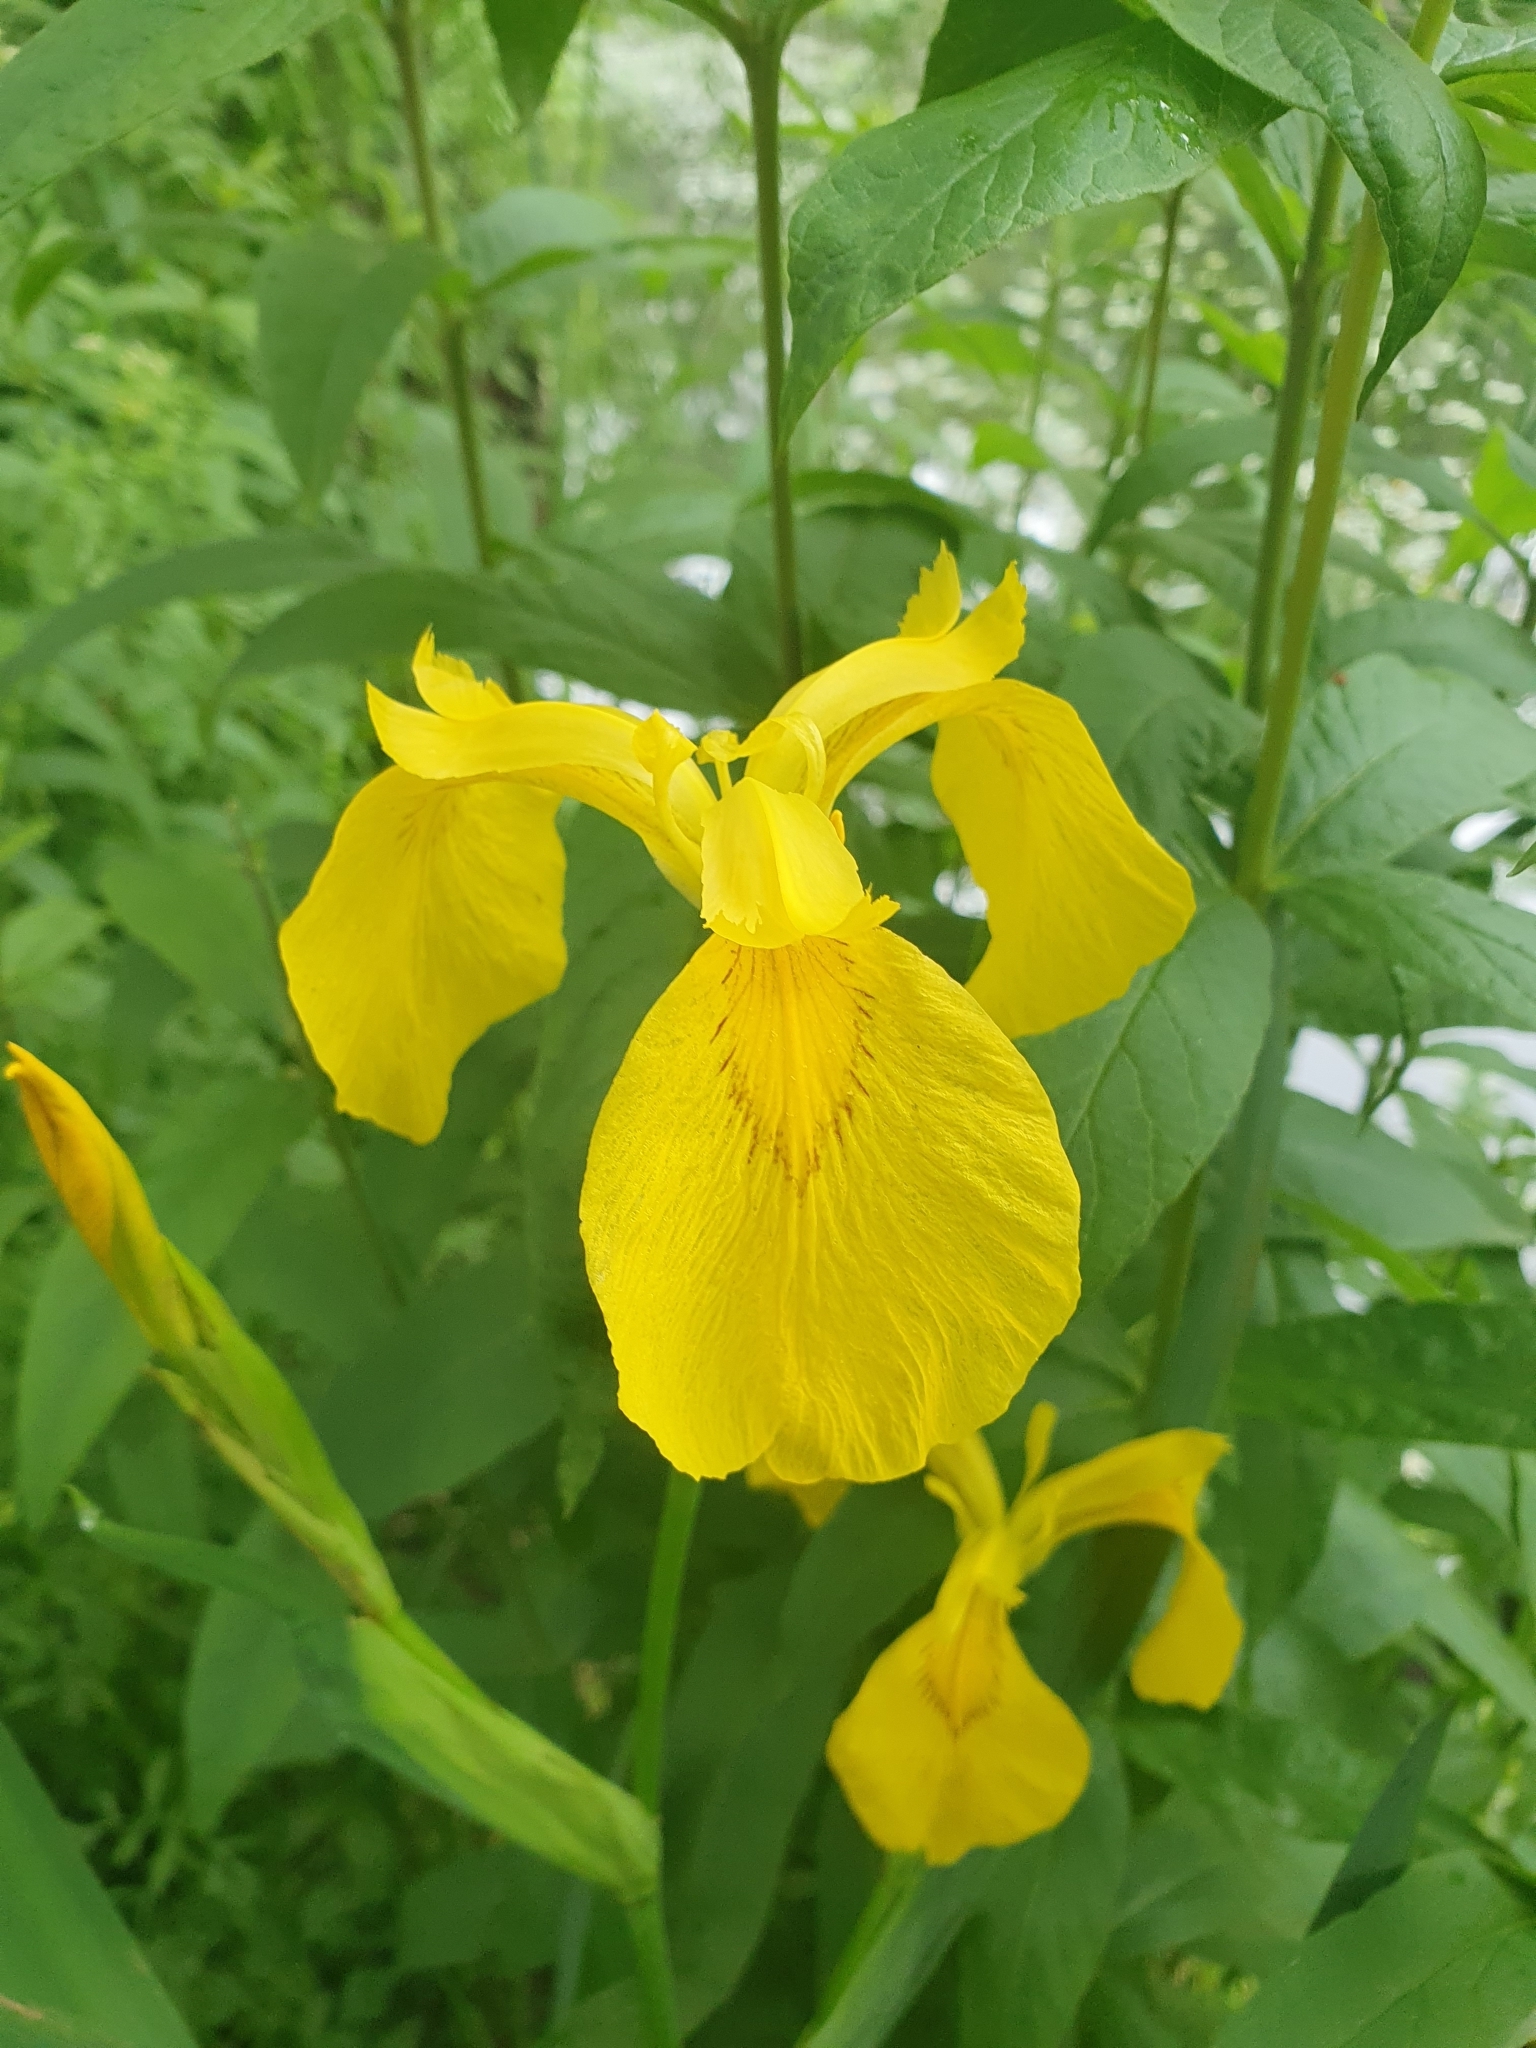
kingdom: Plantae
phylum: Tracheophyta
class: Liliopsida
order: Asparagales
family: Iridaceae
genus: Iris
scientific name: Iris pseudacorus
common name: Yellow flag
